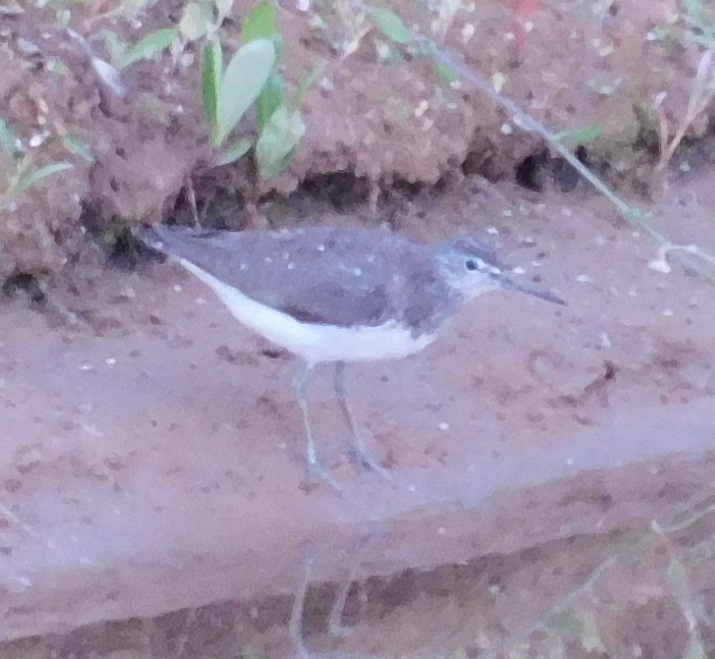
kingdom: Animalia
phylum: Chordata
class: Aves
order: Charadriiformes
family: Scolopacidae
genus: Tringa
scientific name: Tringa ochropus
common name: Green sandpiper
